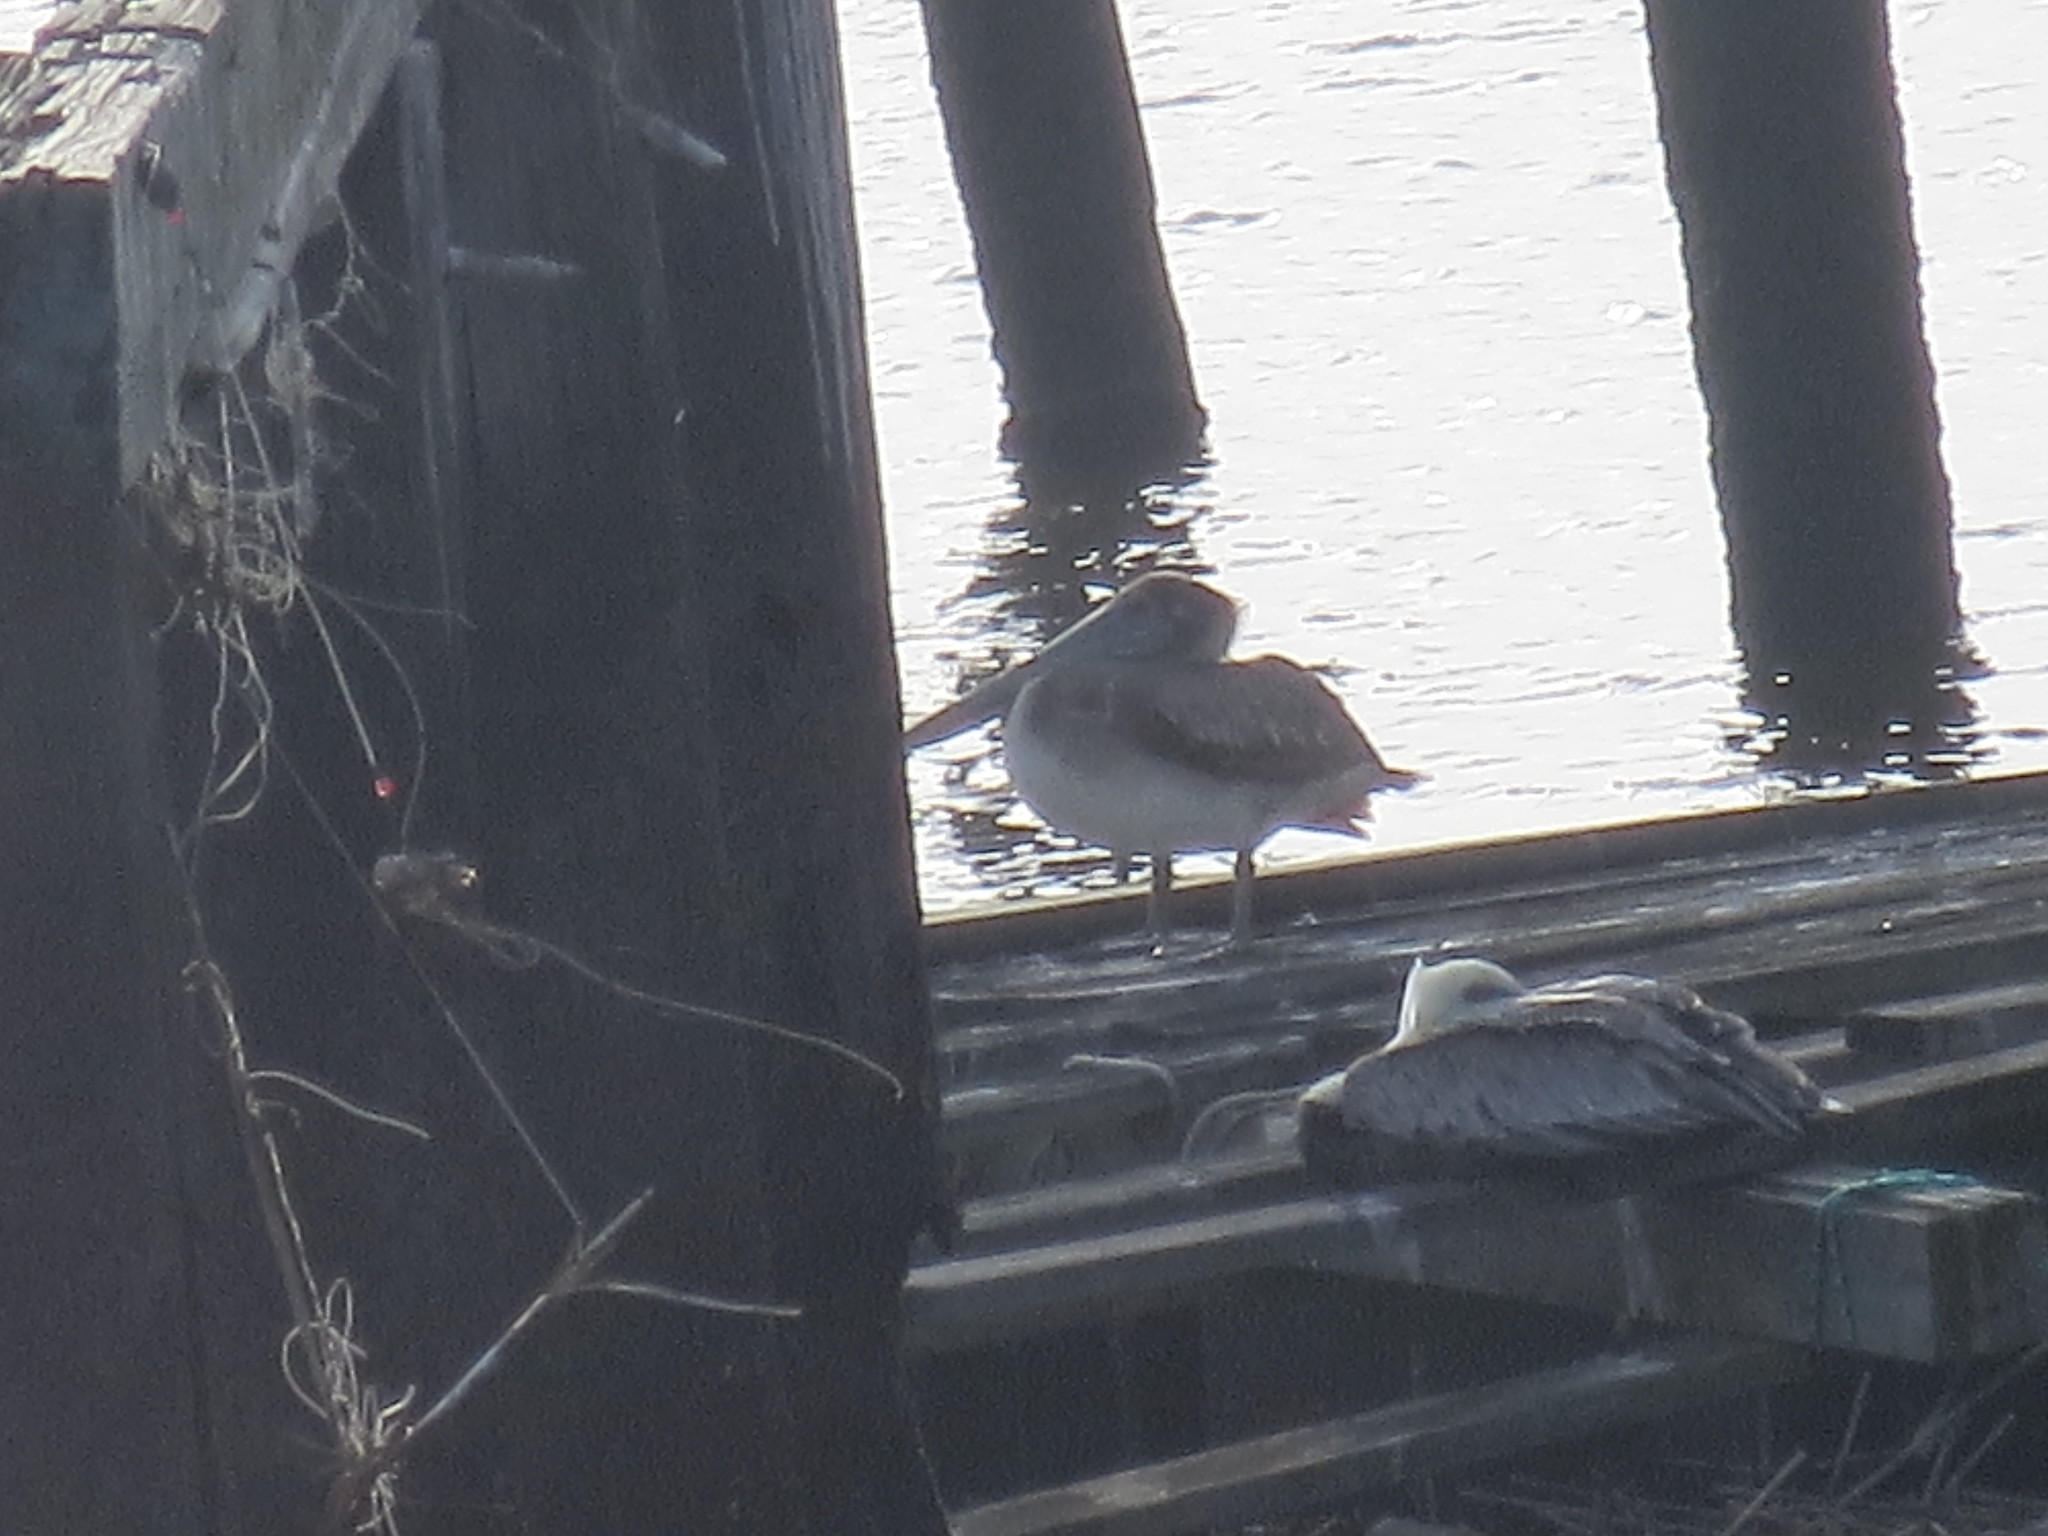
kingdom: Animalia
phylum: Chordata
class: Aves
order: Pelecaniformes
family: Pelecanidae
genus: Pelecanus
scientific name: Pelecanus occidentalis
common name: Brown pelican
